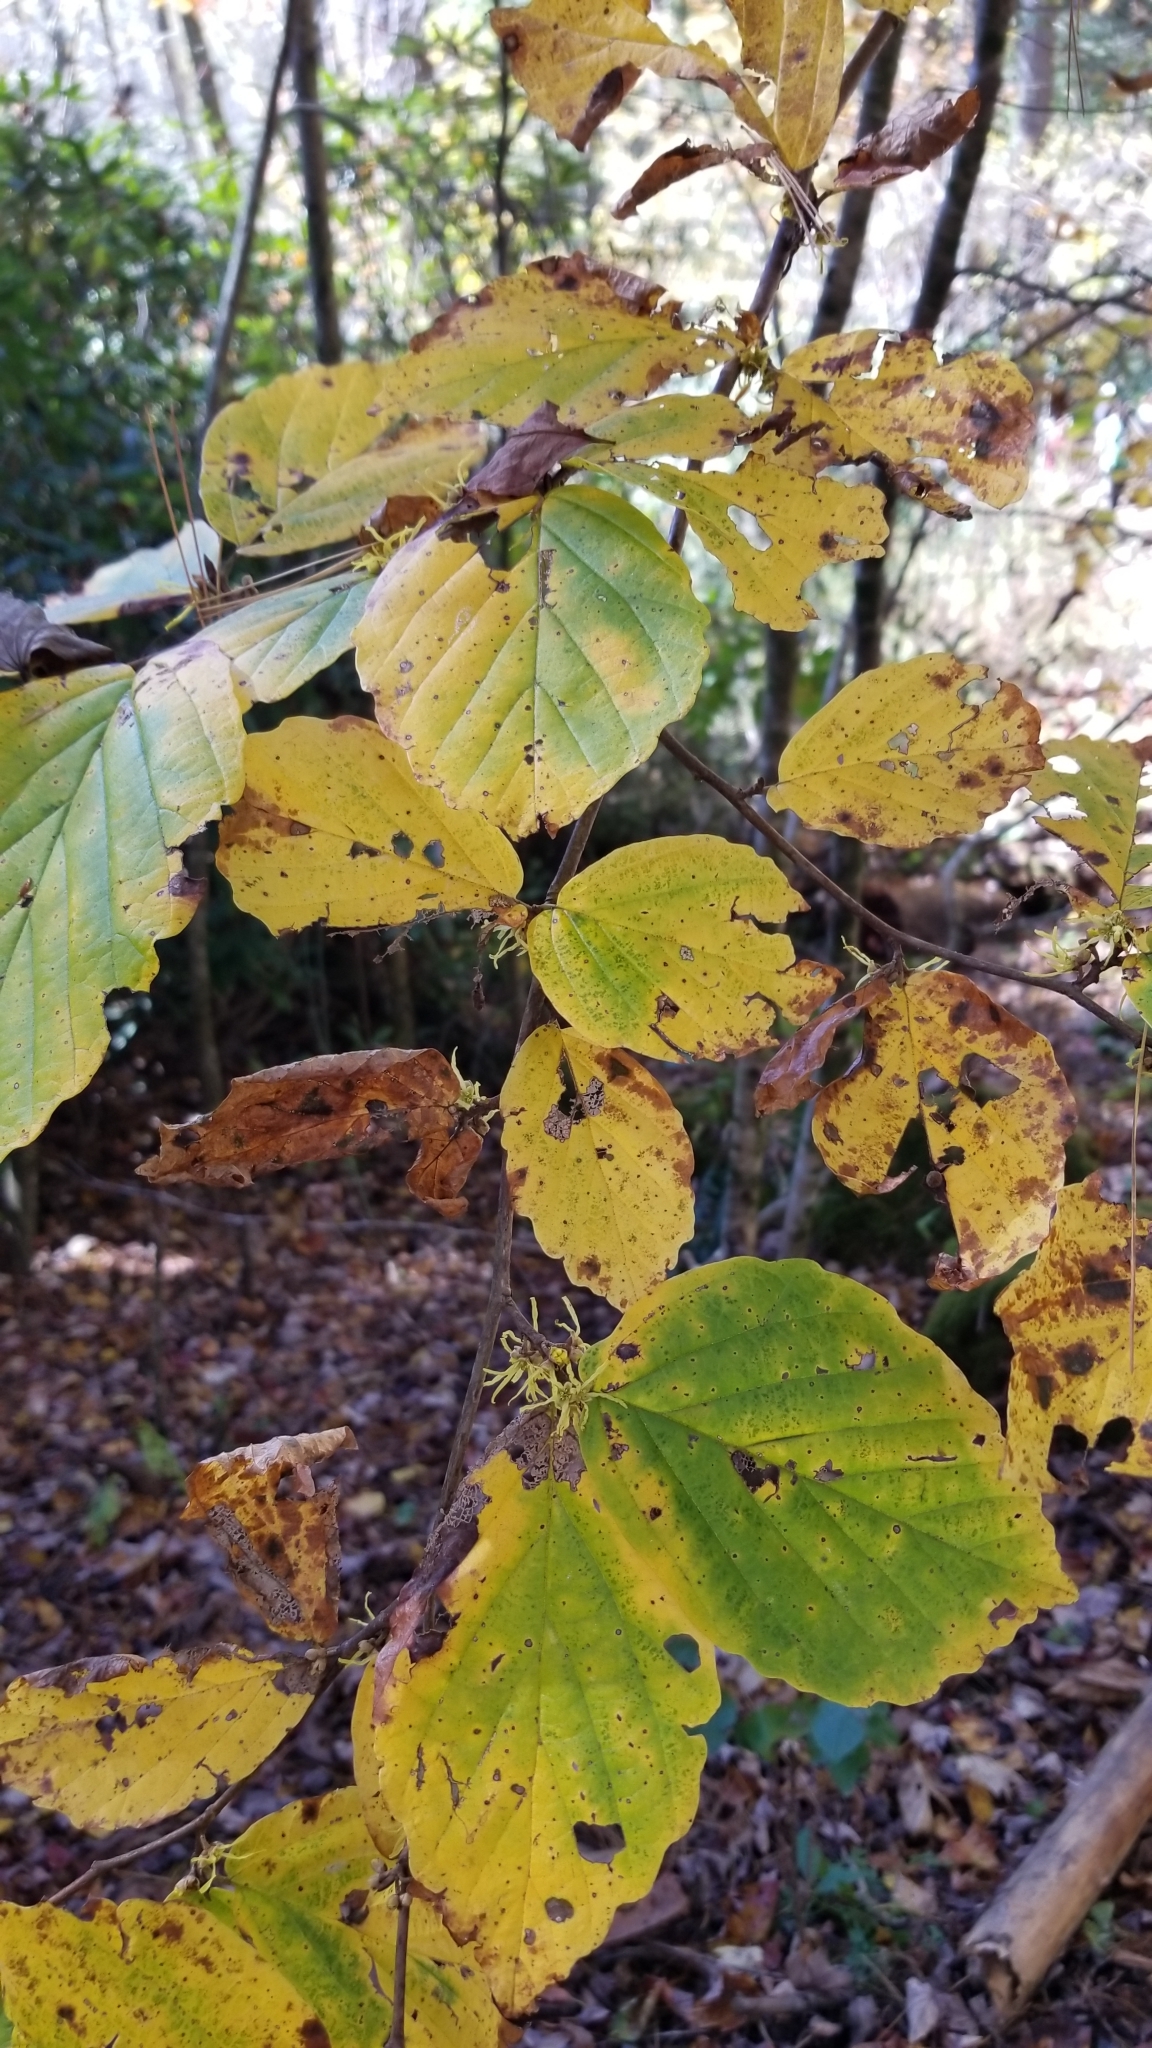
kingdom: Plantae
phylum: Tracheophyta
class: Magnoliopsida
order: Saxifragales
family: Hamamelidaceae
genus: Hamamelis
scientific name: Hamamelis virginiana
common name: Witch-hazel
